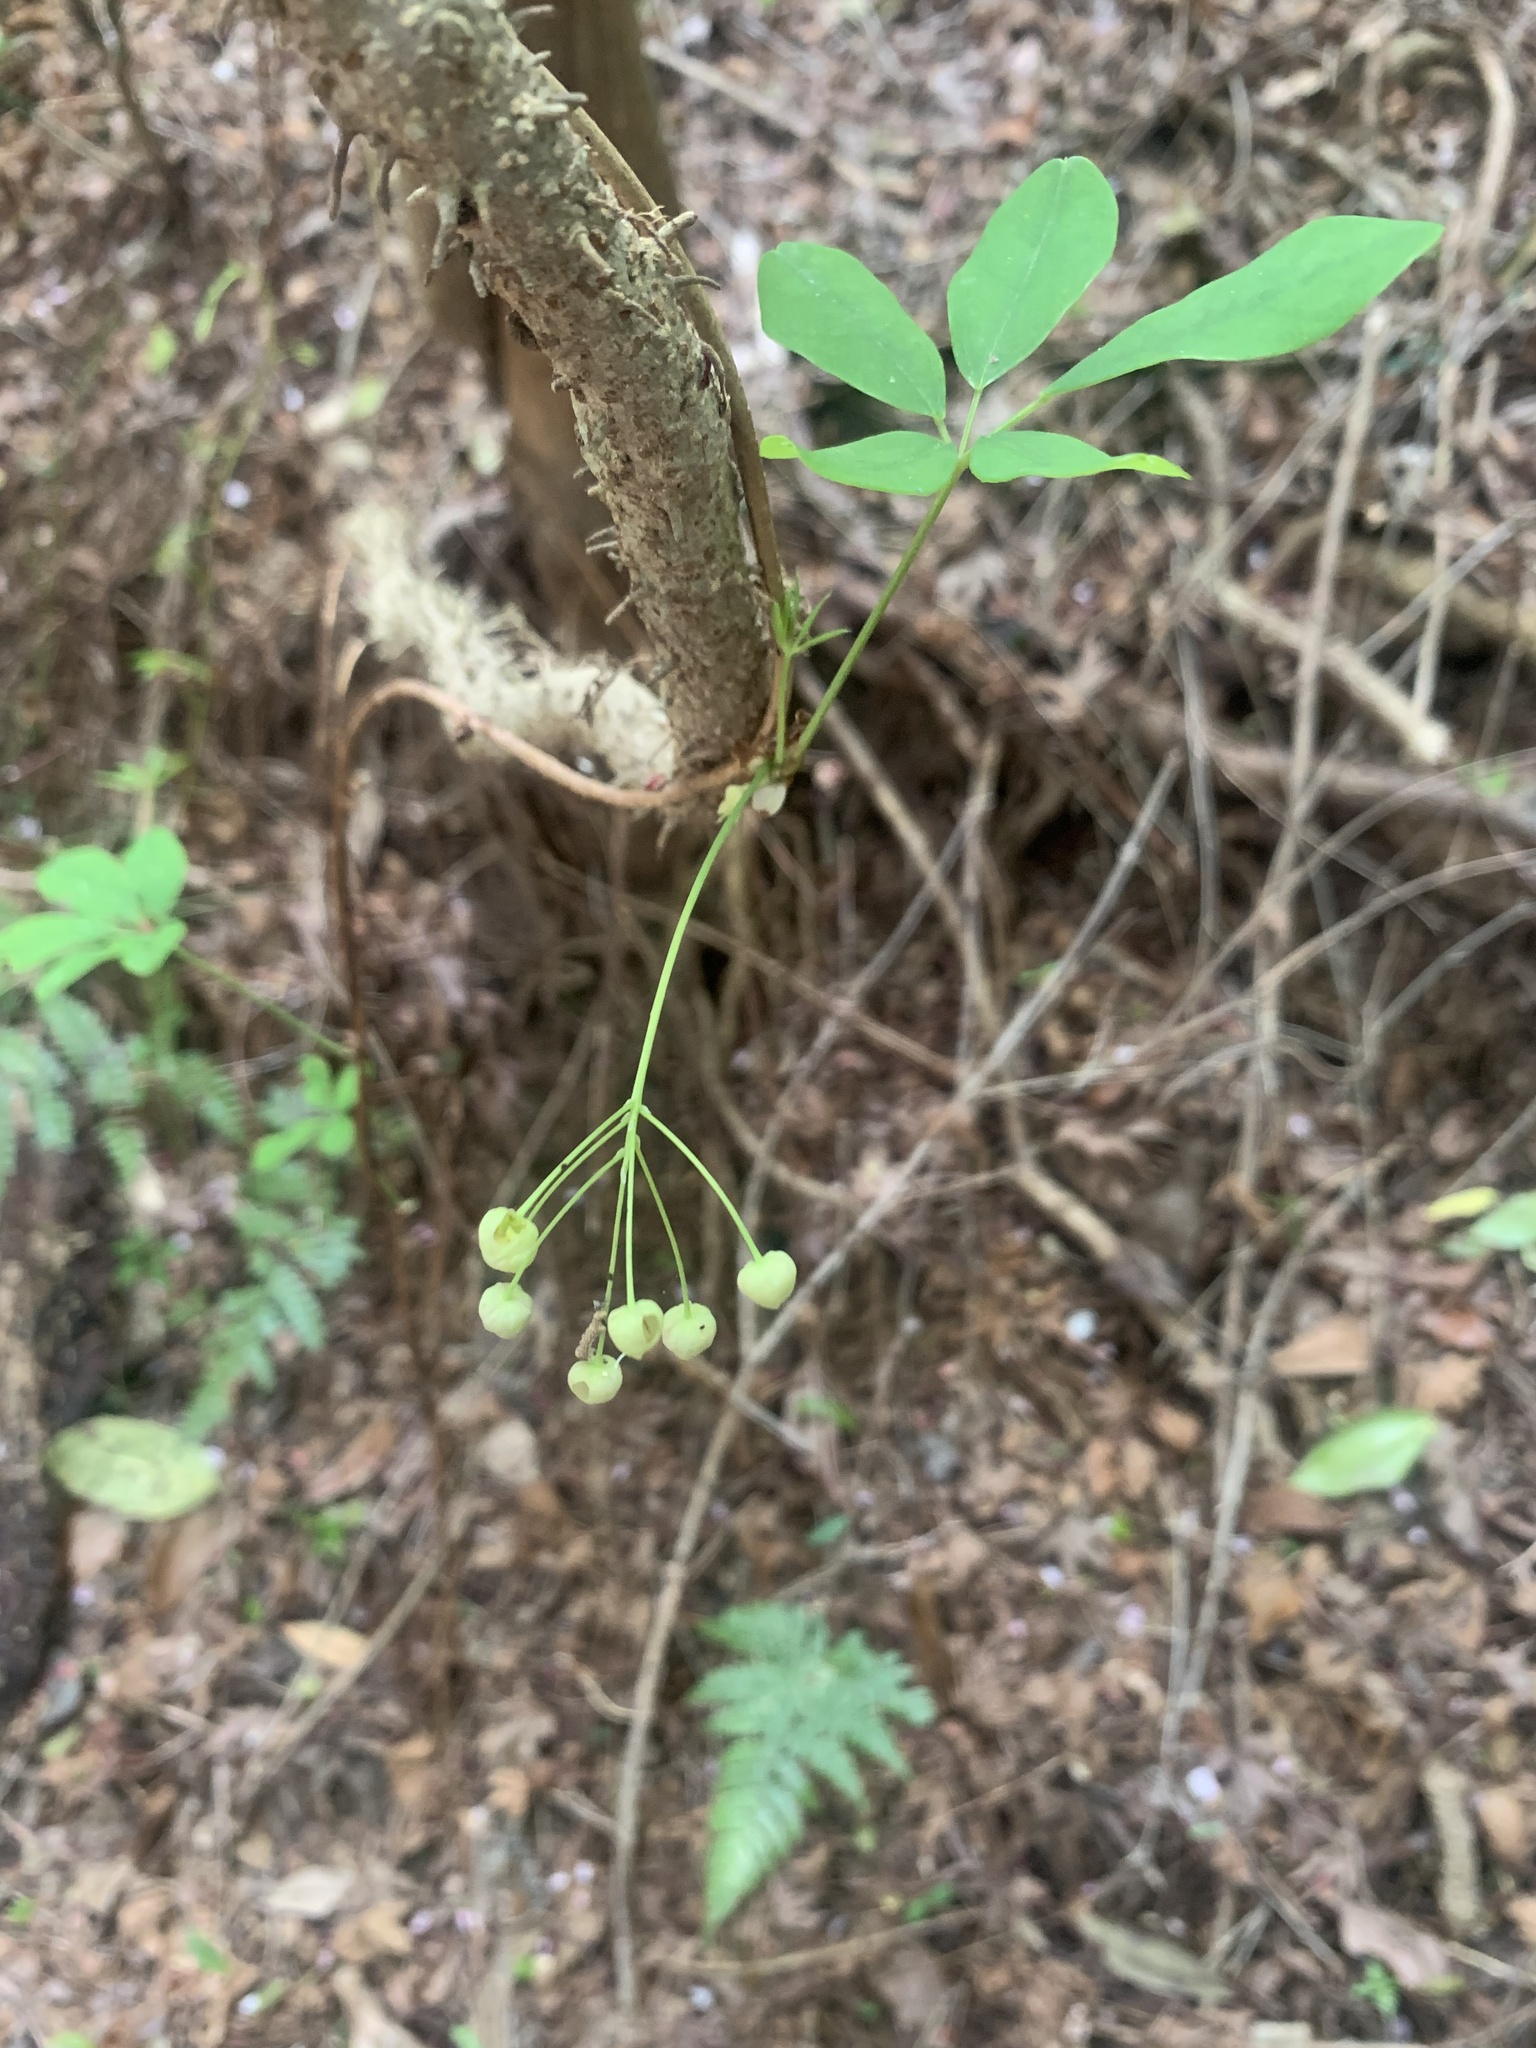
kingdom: Plantae
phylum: Tracheophyta
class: Magnoliopsida
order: Ranunculales
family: Lardizabalaceae
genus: Akebia
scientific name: Akebia quinata
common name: Five-leaf akebia
